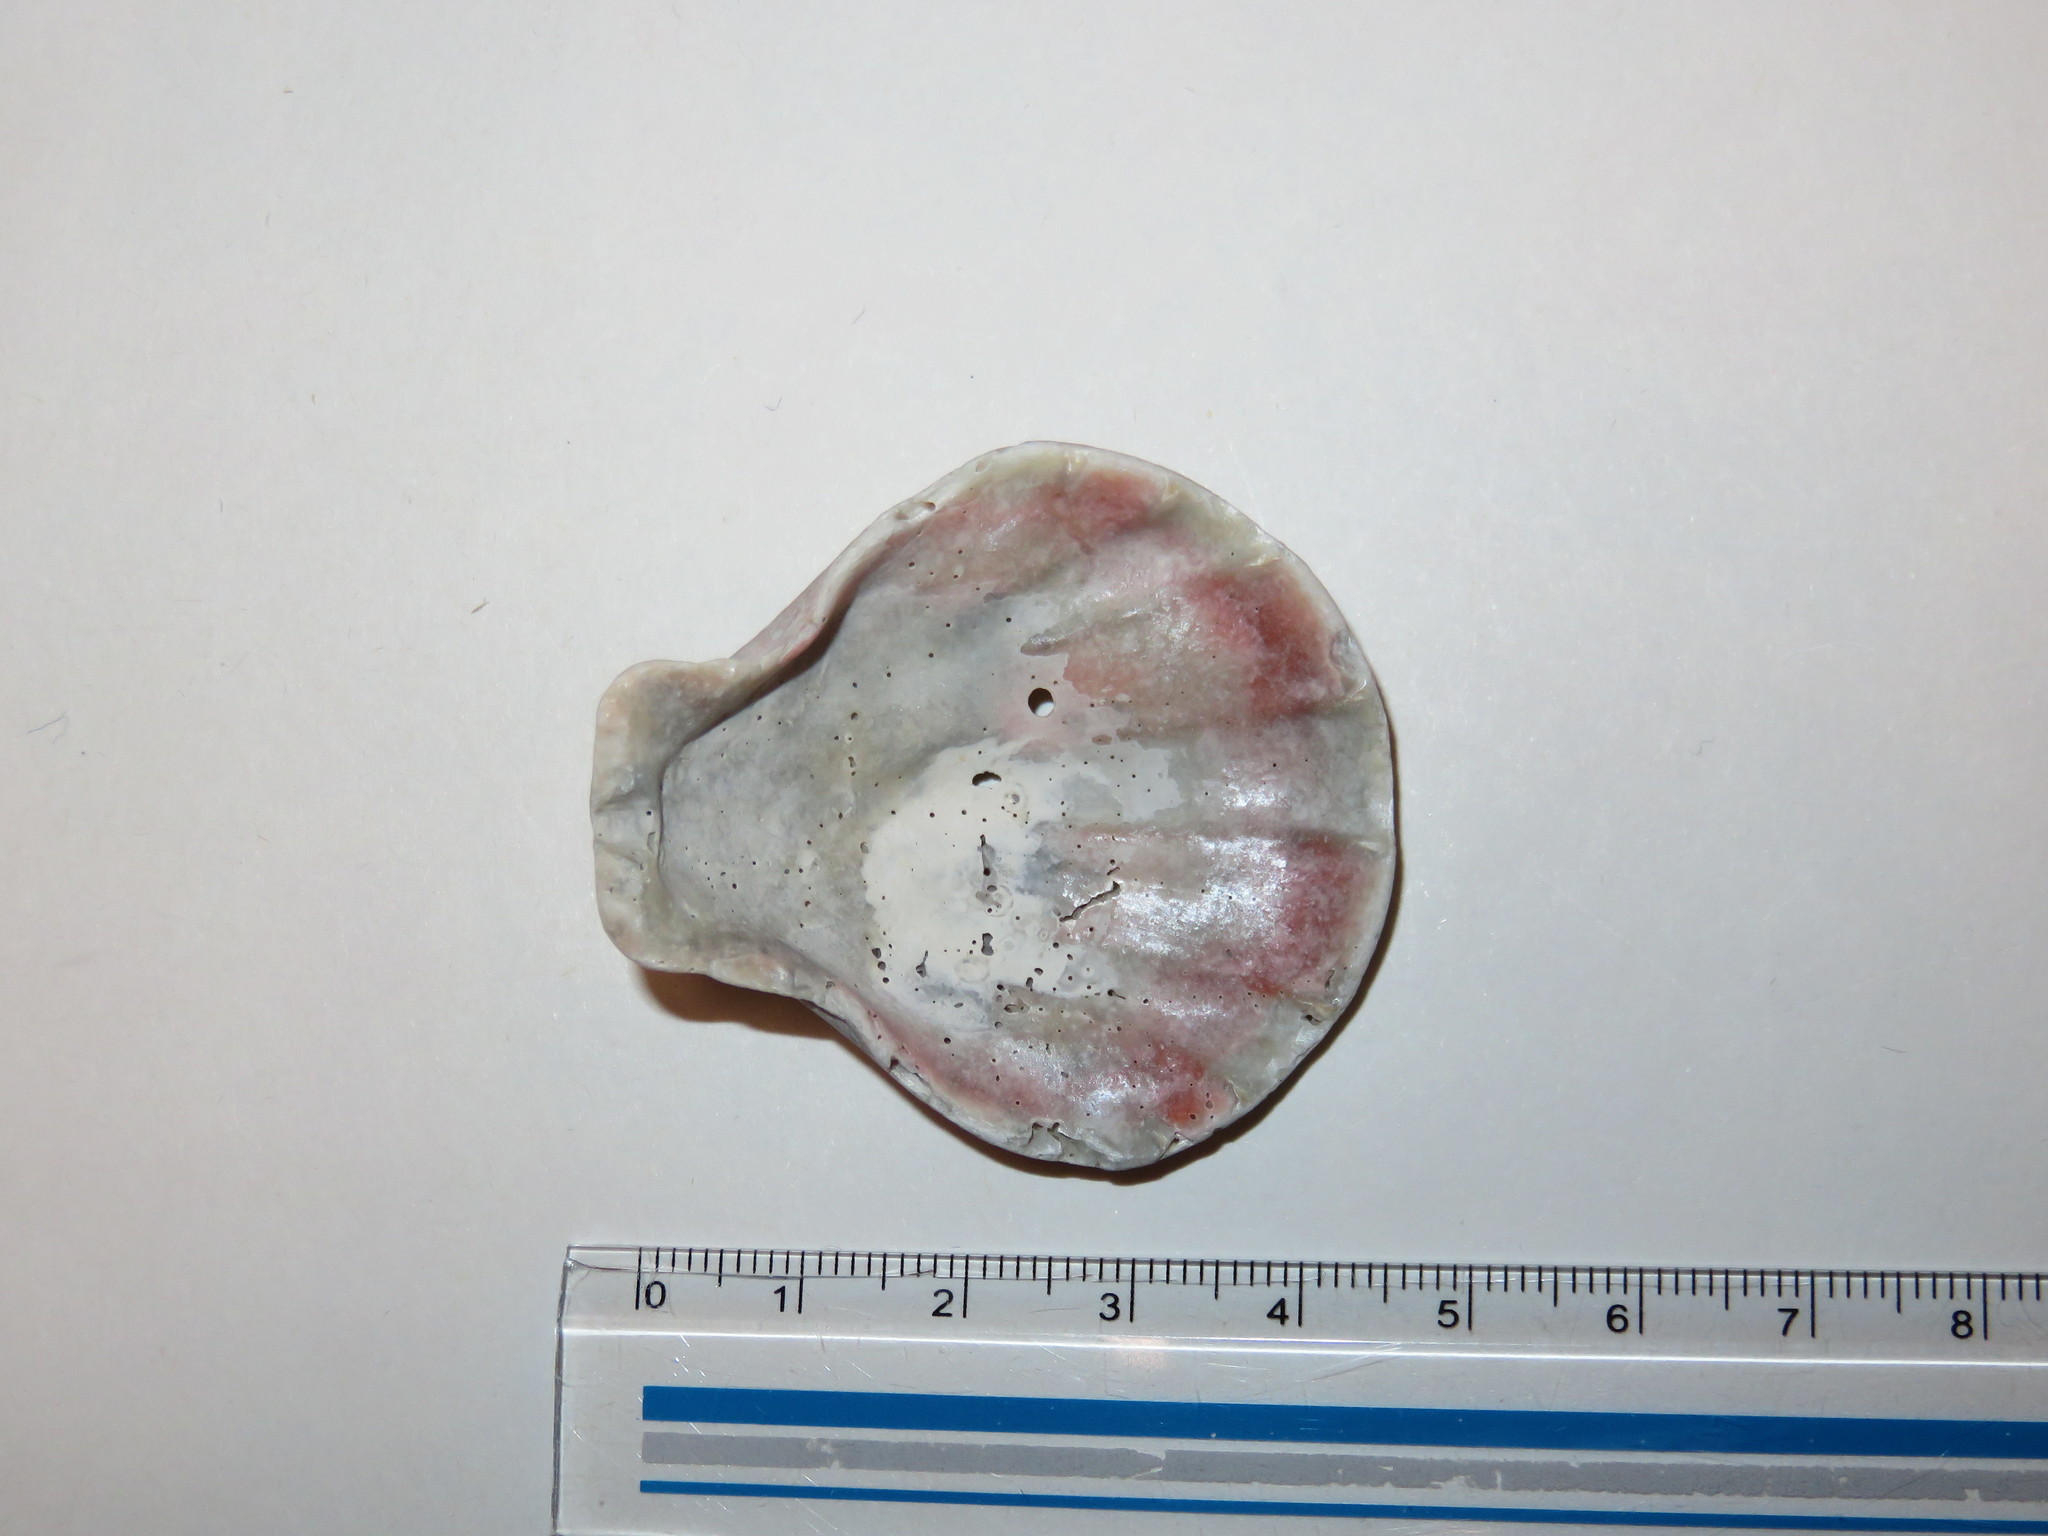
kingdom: Animalia
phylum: Mollusca
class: Bivalvia
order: Pectinida
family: Pectinidae
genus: Decatopecten
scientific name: Decatopecten plica
